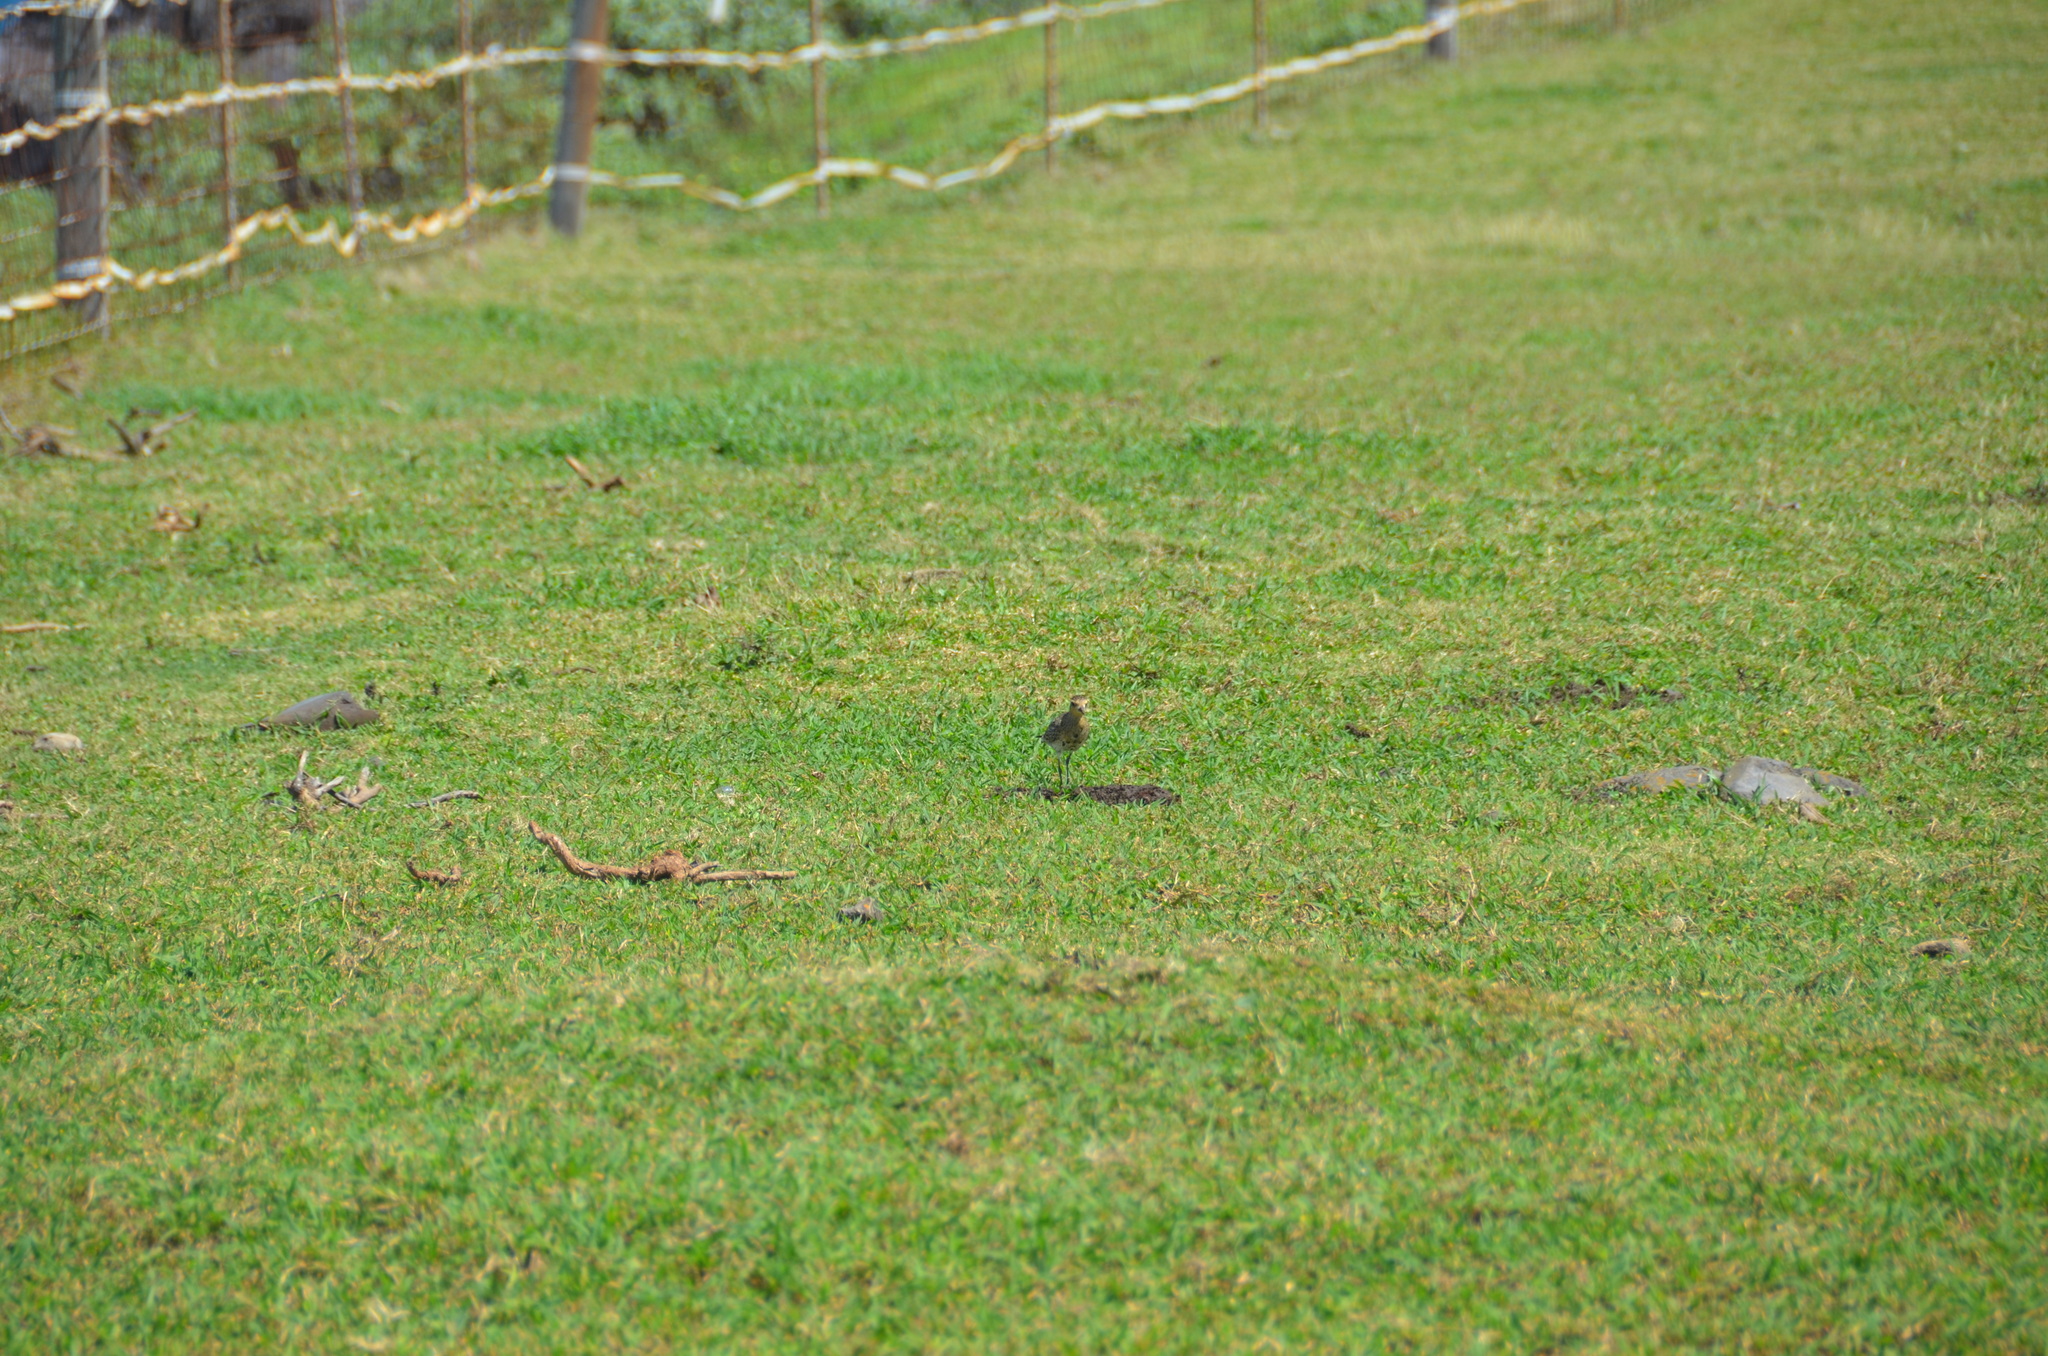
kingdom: Animalia
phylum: Chordata
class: Aves
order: Charadriiformes
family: Charadriidae
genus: Pluvialis
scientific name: Pluvialis fulva
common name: Pacific golden plover
